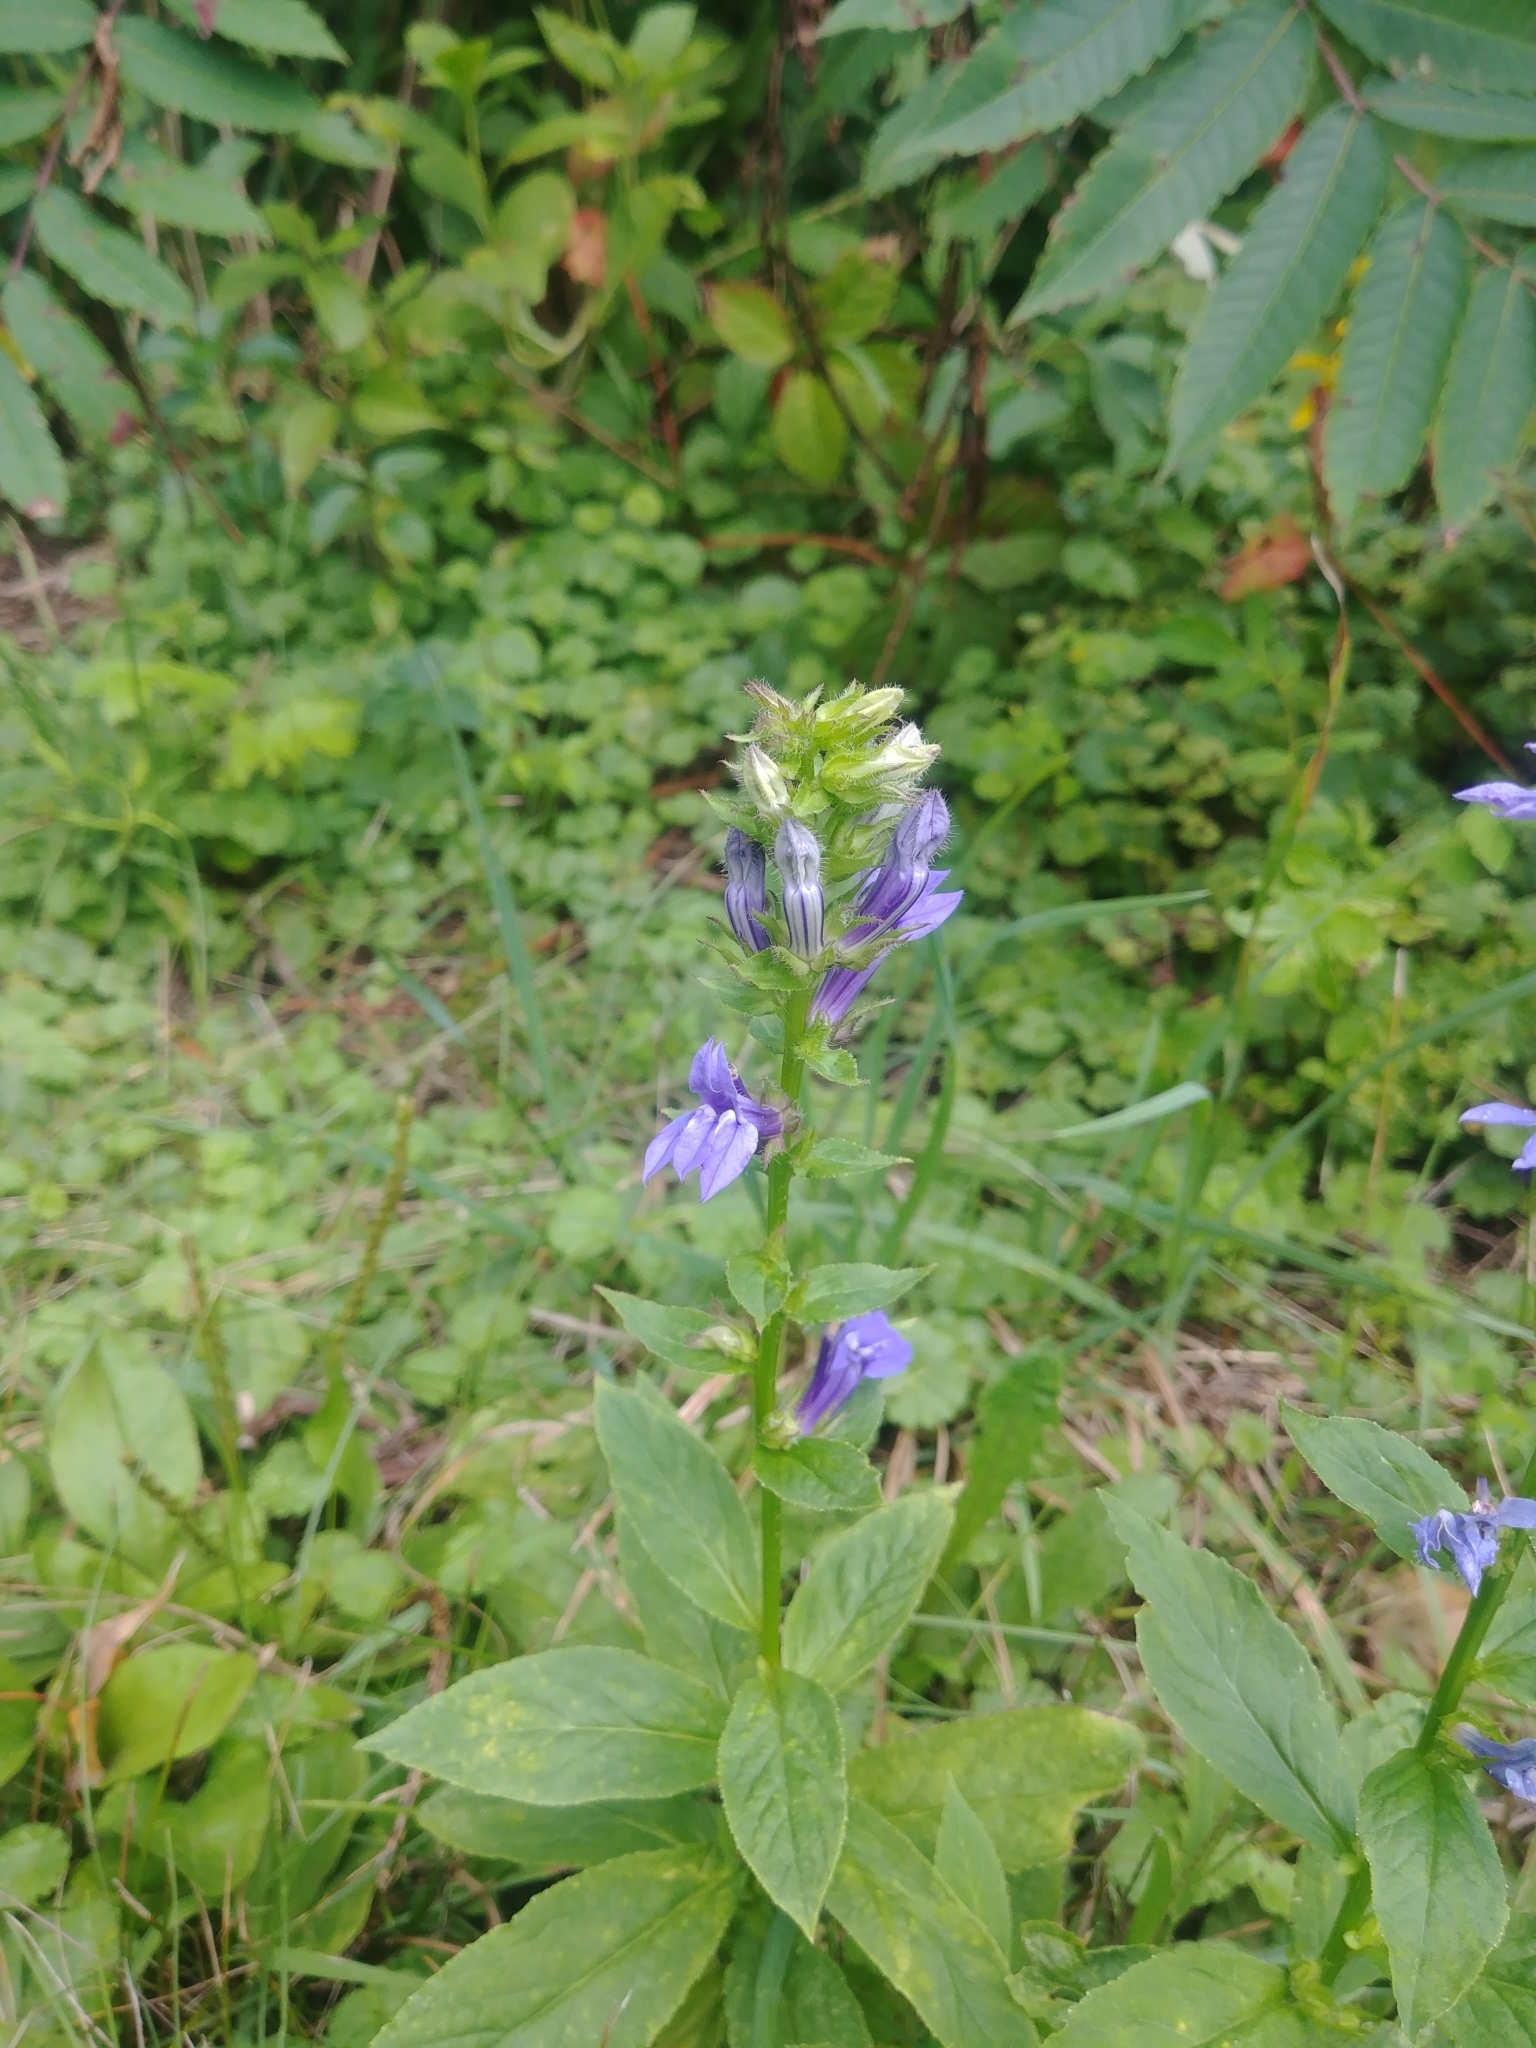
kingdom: Plantae
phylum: Tracheophyta
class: Magnoliopsida
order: Asterales
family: Campanulaceae
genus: Lobelia
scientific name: Lobelia siphilitica
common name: Great lobelia
